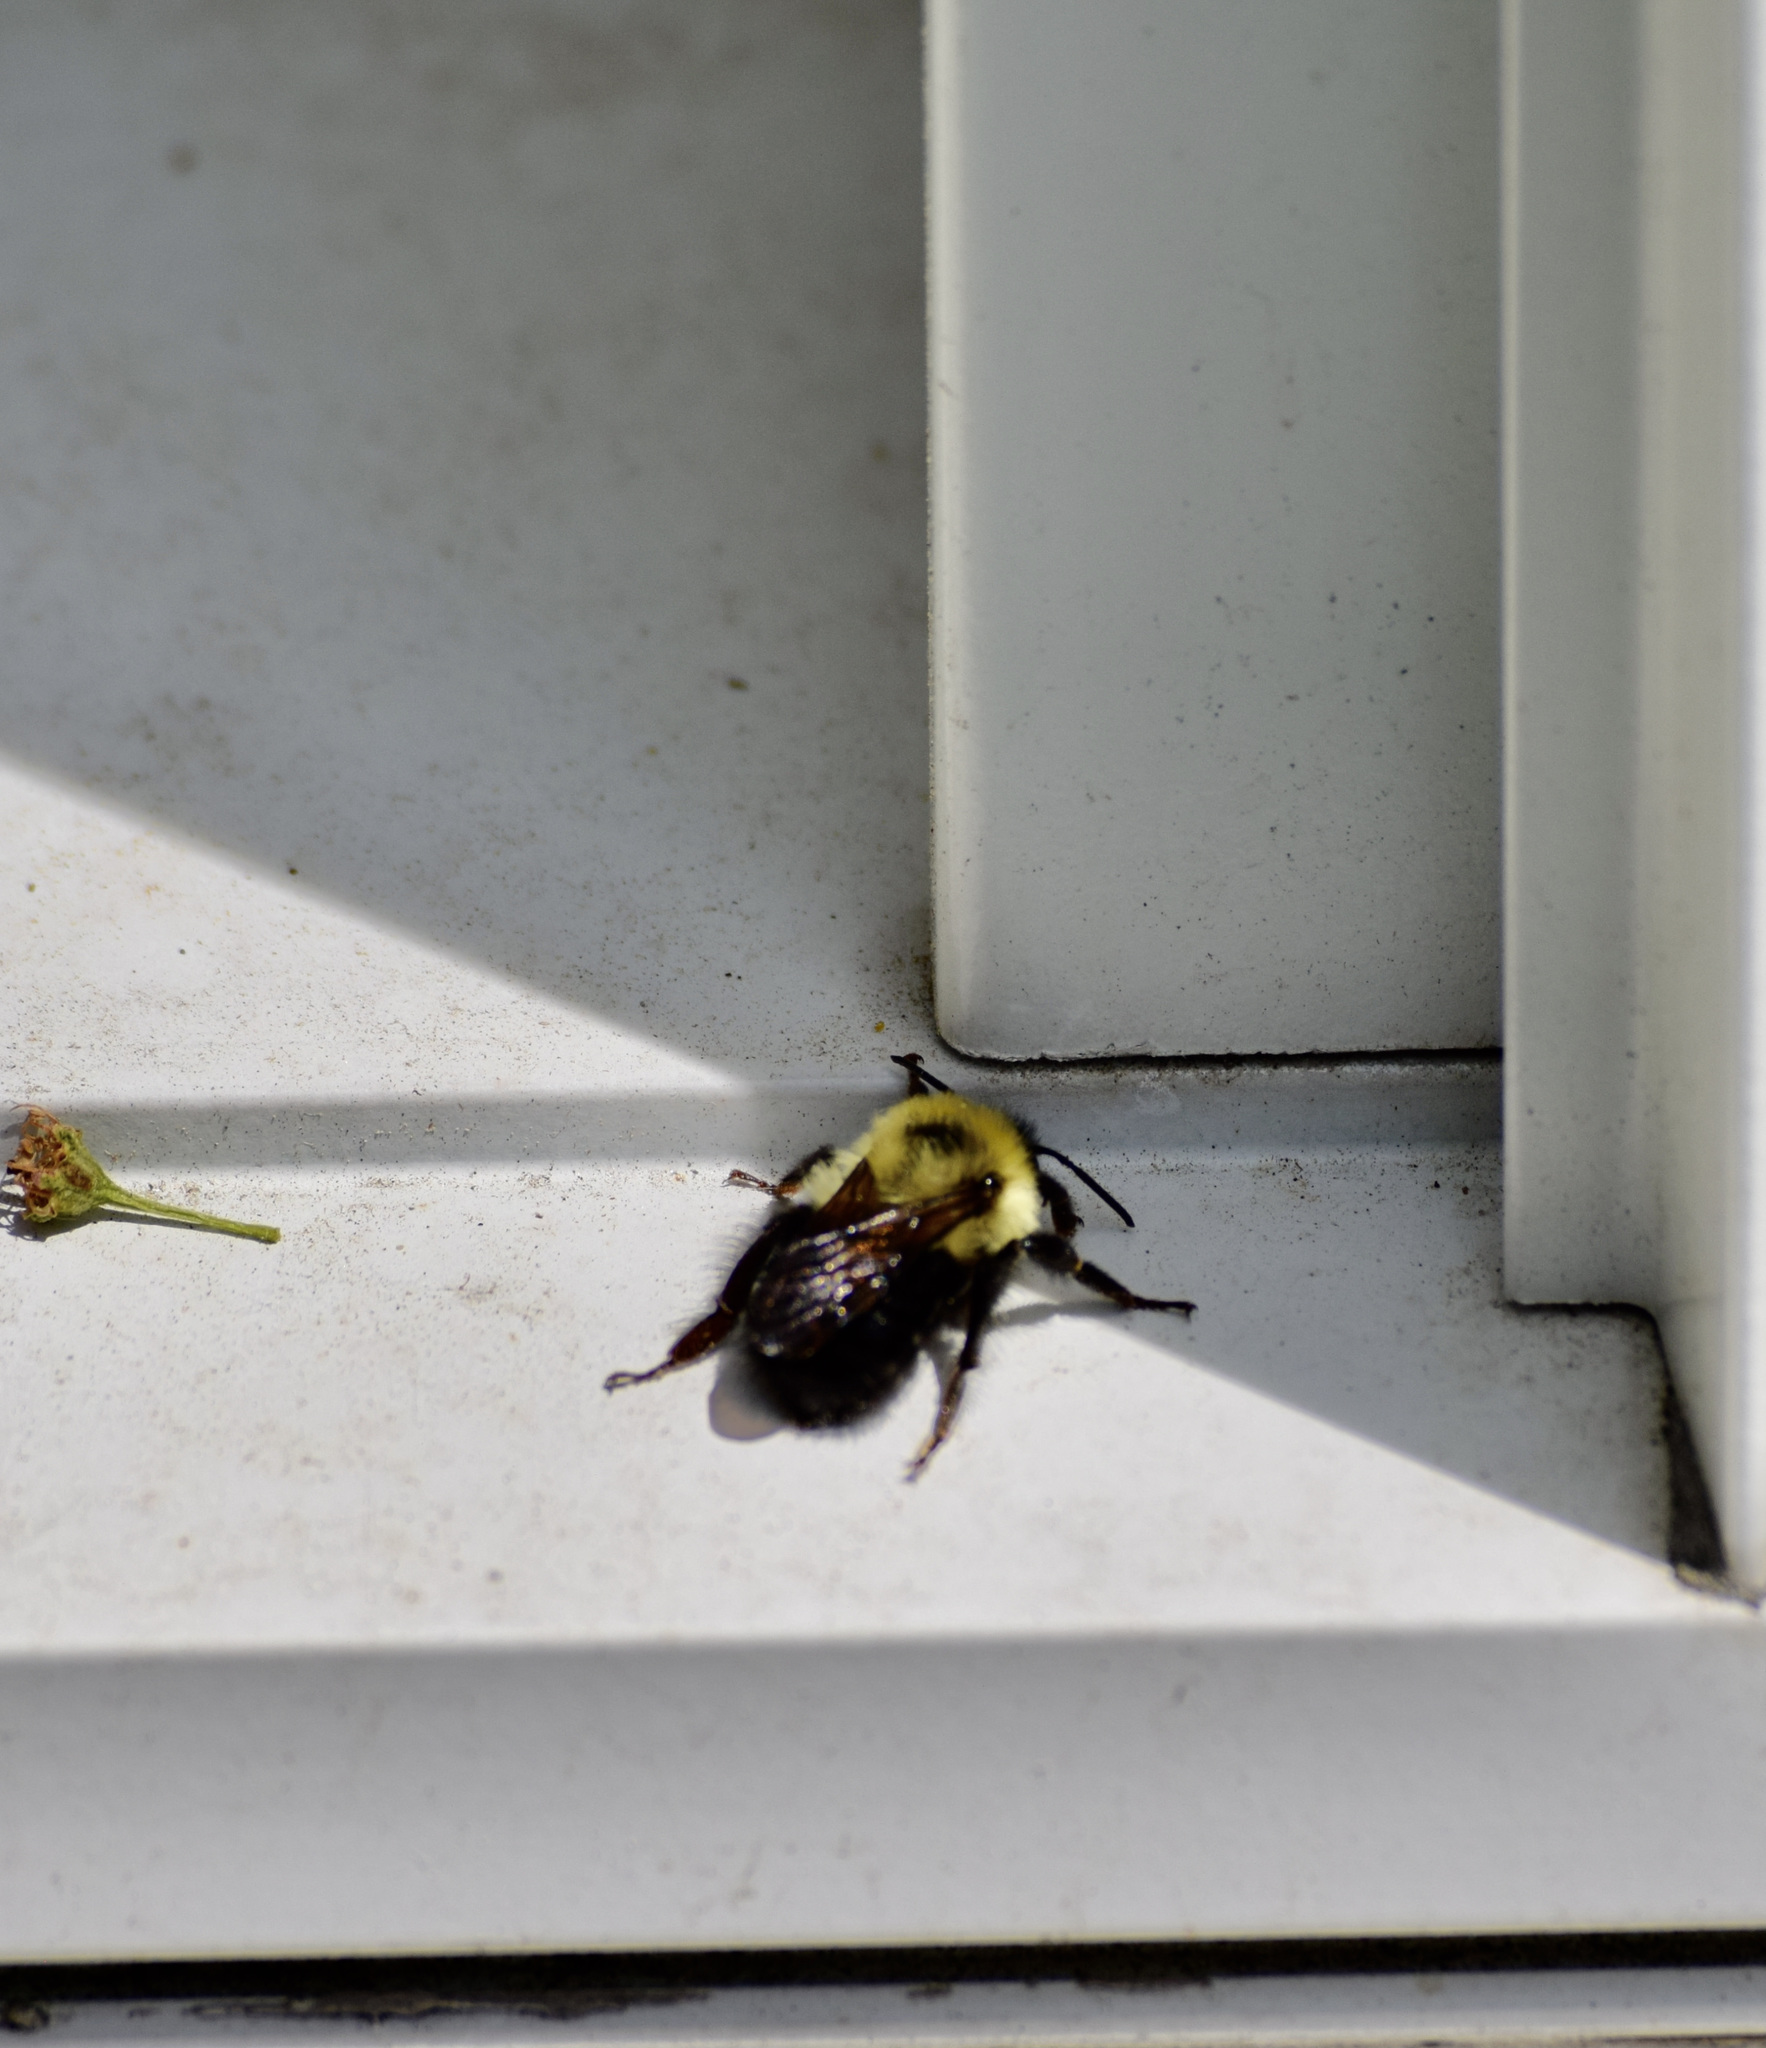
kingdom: Animalia
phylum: Arthropoda
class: Insecta
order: Hymenoptera
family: Apidae
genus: Bombus
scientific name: Bombus bimaculatus
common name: Two-spotted bumble bee
